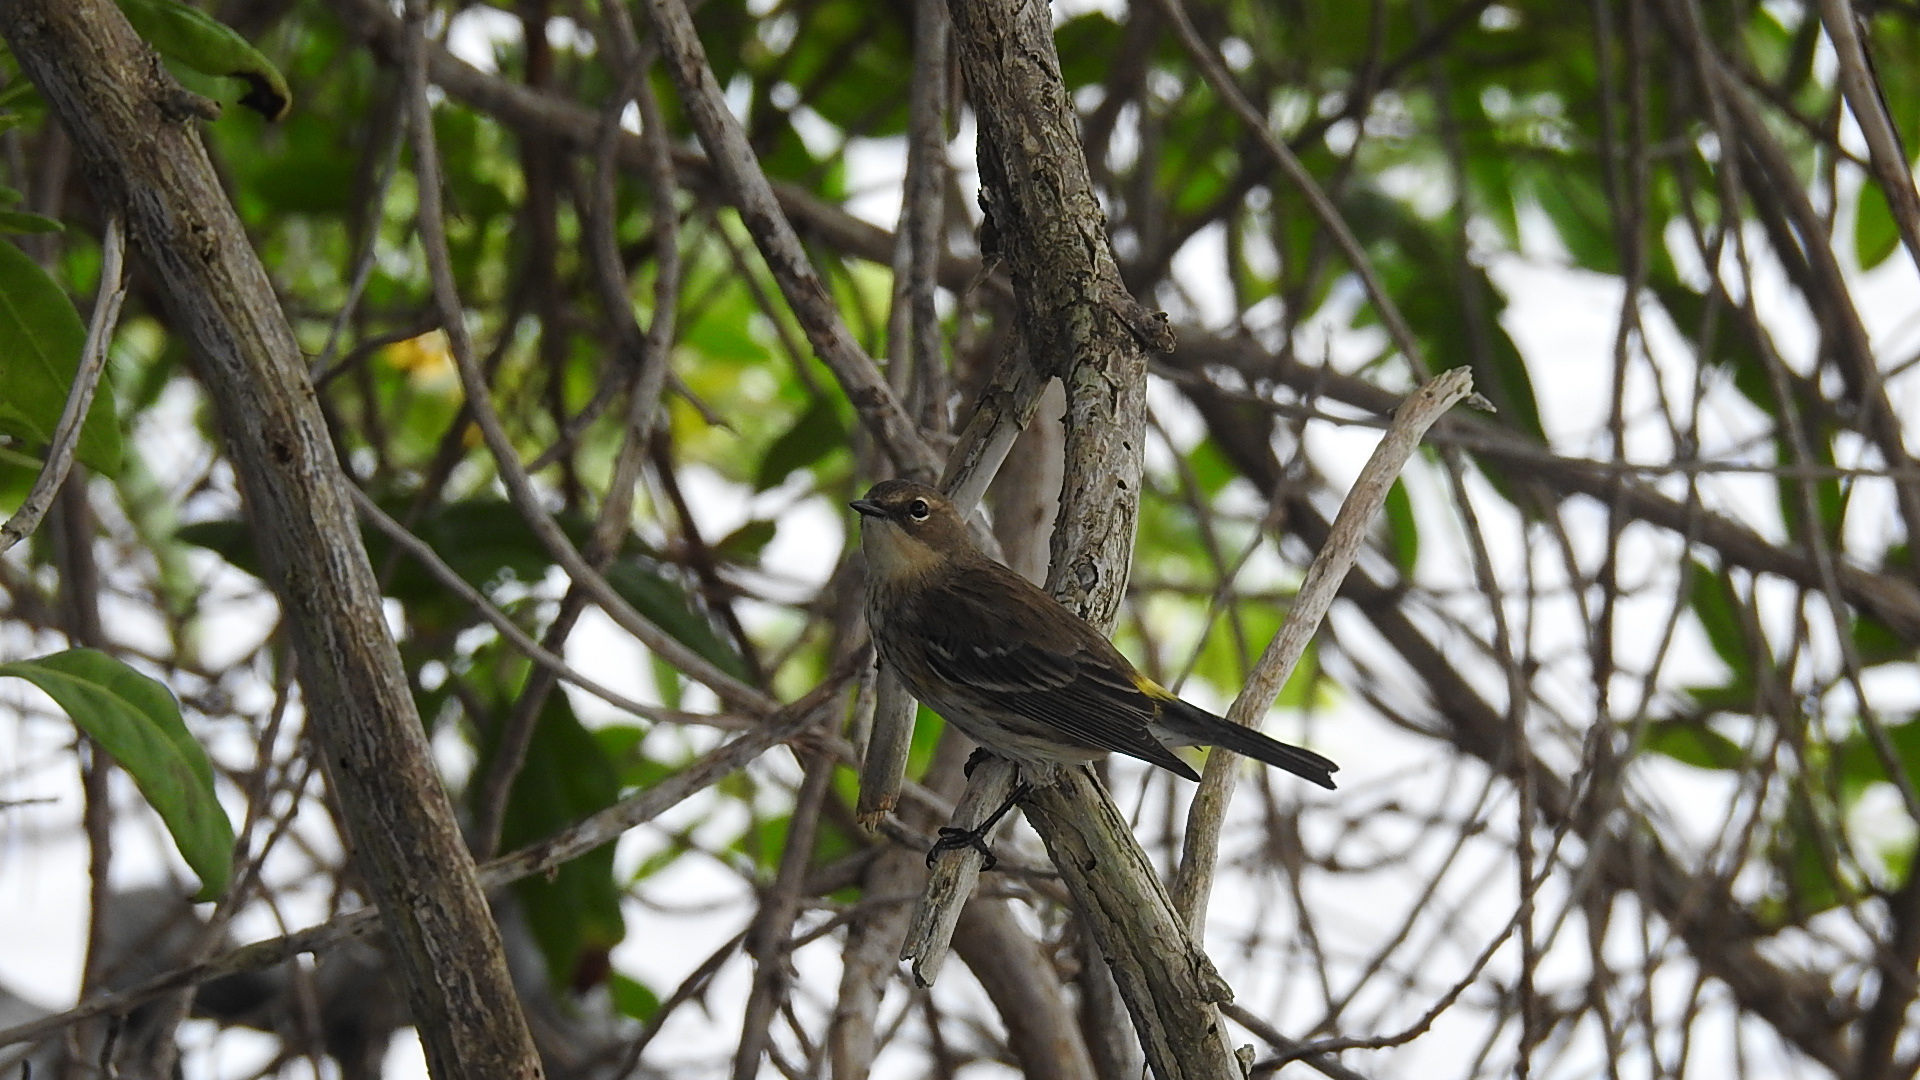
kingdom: Animalia
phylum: Chordata
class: Aves
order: Passeriformes
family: Parulidae
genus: Setophaga
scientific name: Setophaga coronata
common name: Myrtle warbler
